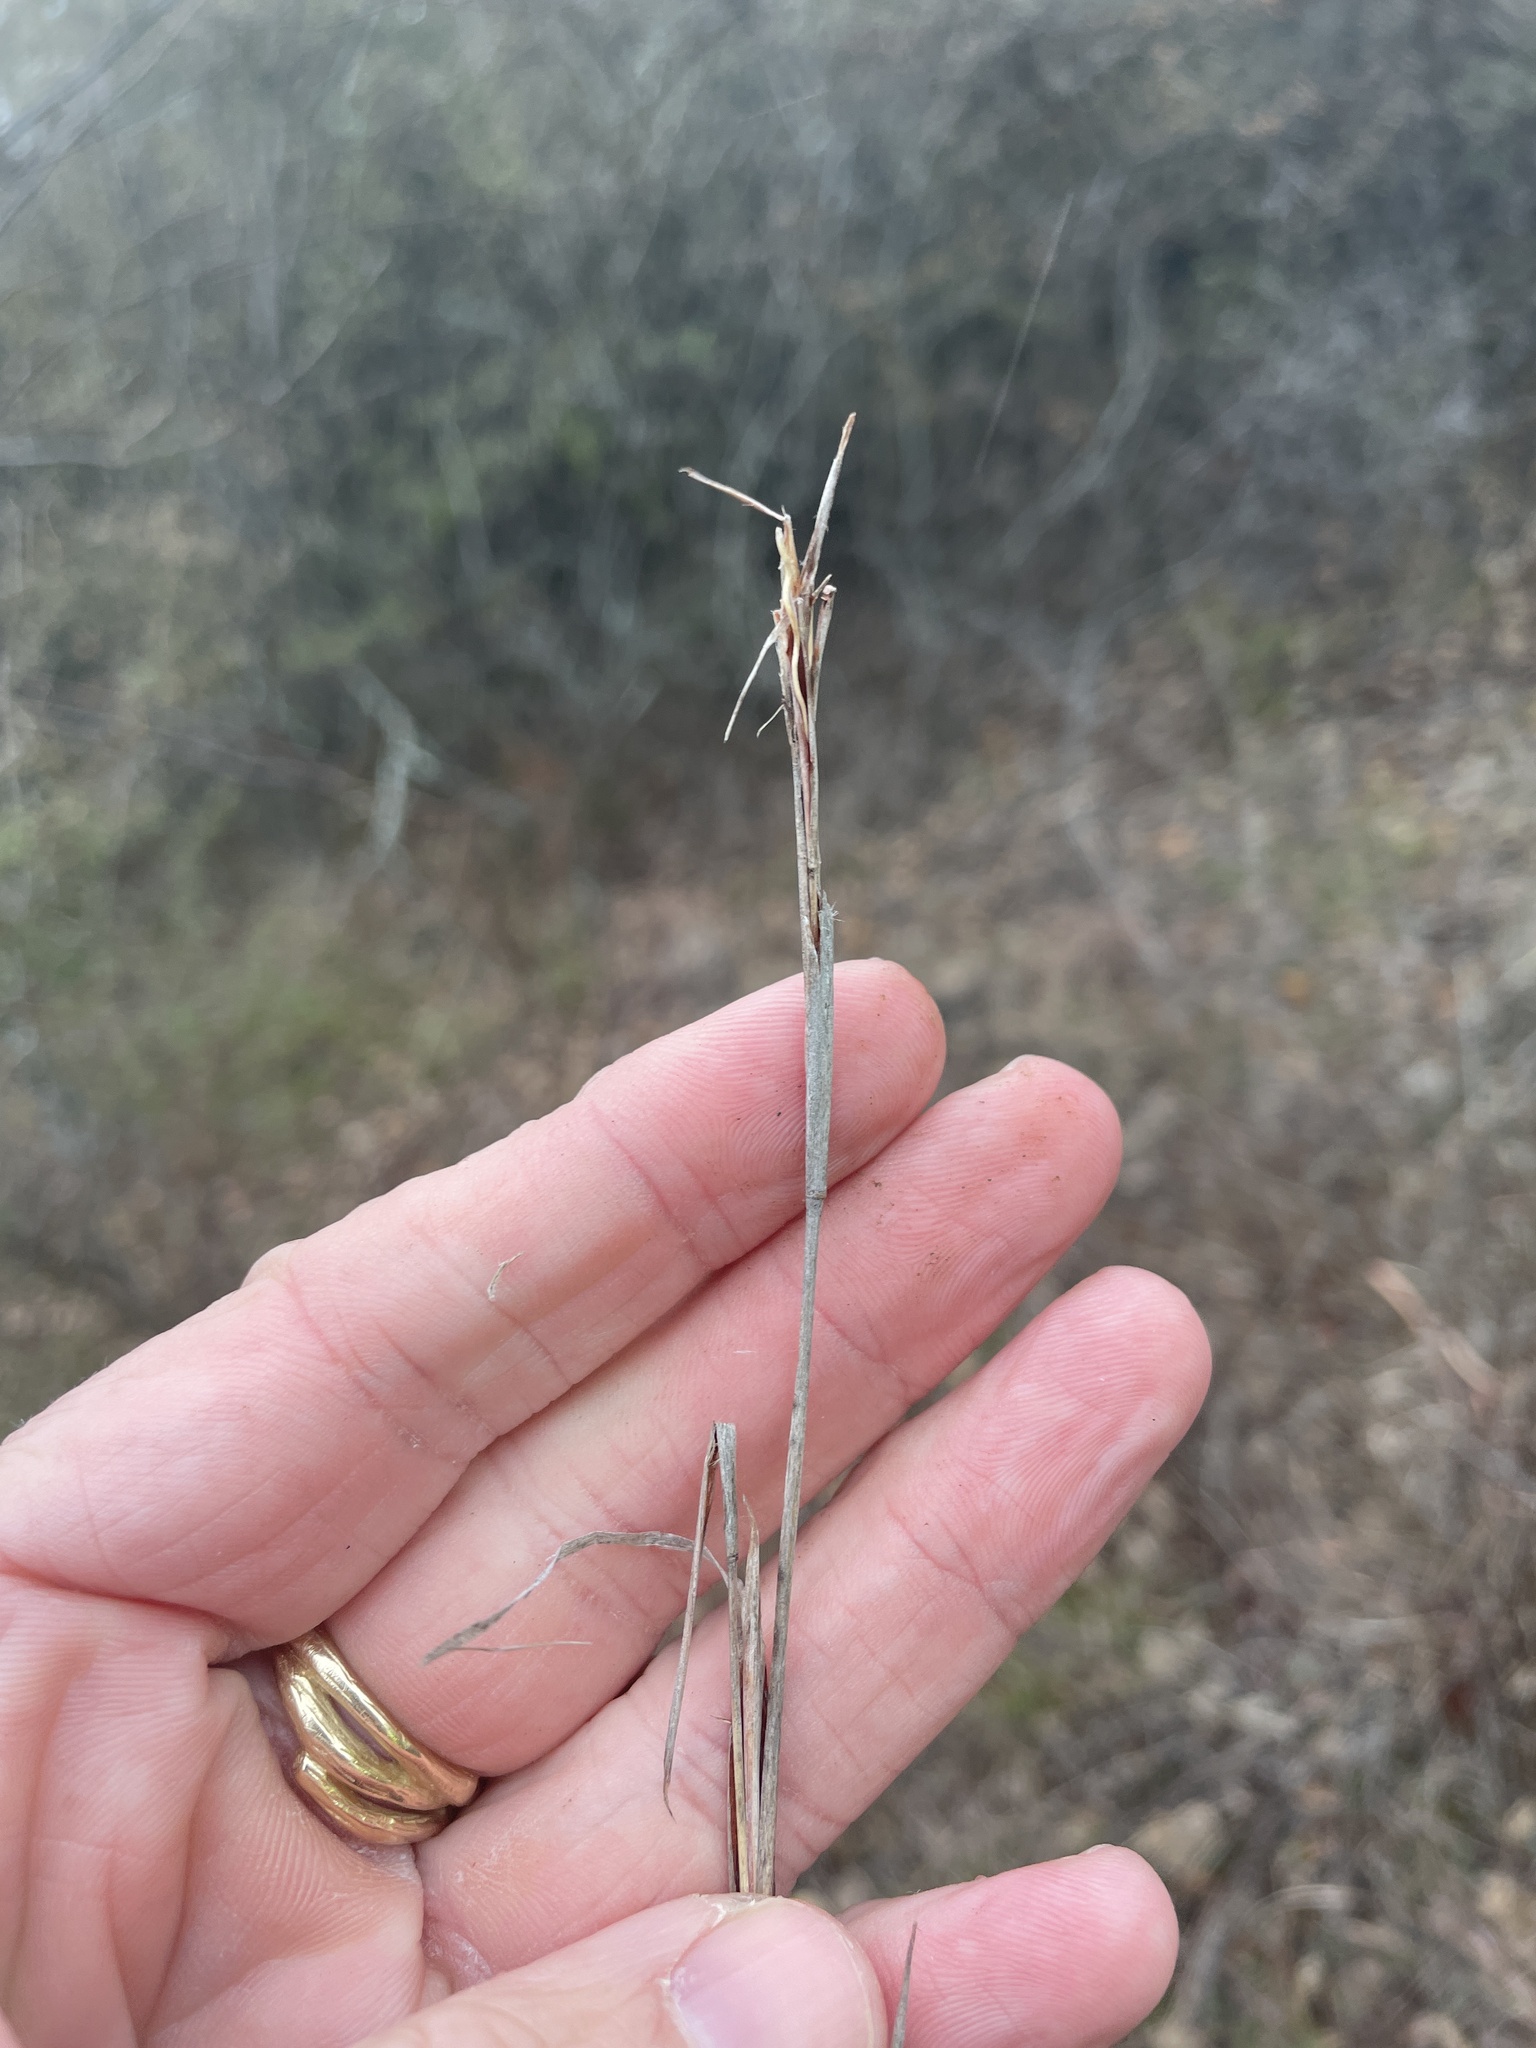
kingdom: Plantae
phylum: Tracheophyta
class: Liliopsida
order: Poales
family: Poaceae
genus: Schizachyrium
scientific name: Schizachyrium scoparium
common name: Little bluestem
